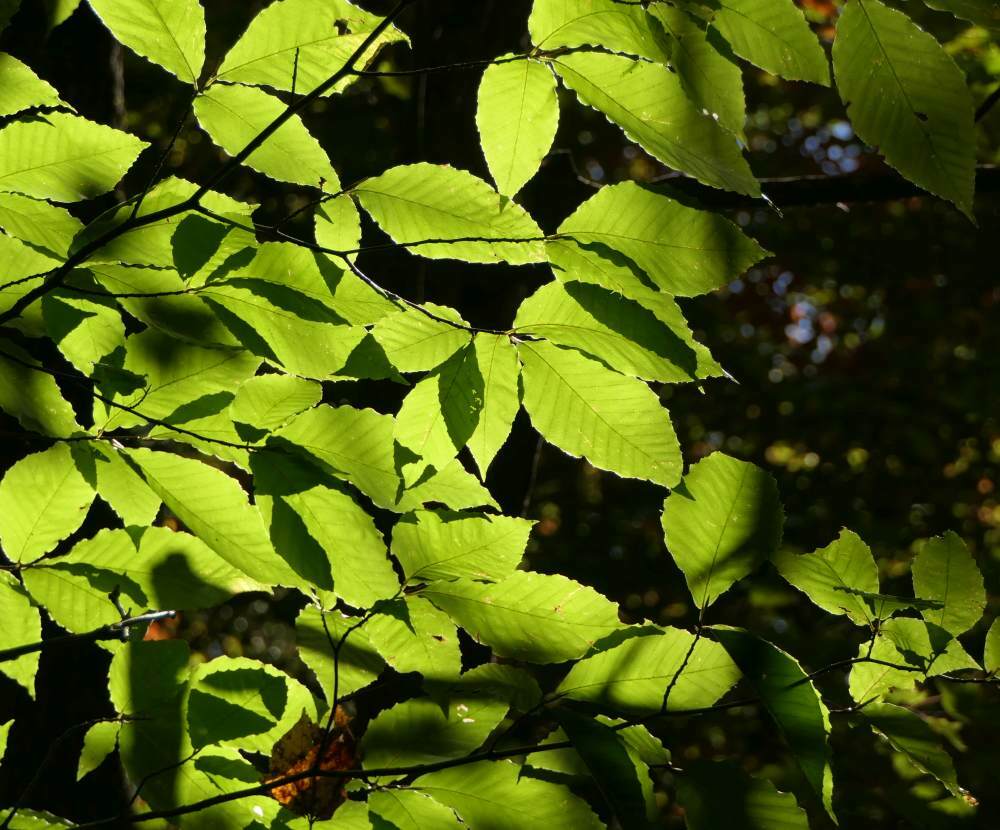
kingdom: Plantae
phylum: Tracheophyta
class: Magnoliopsida
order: Fagales
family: Fagaceae
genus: Fagus
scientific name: Fagus grandifolia
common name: American beech
